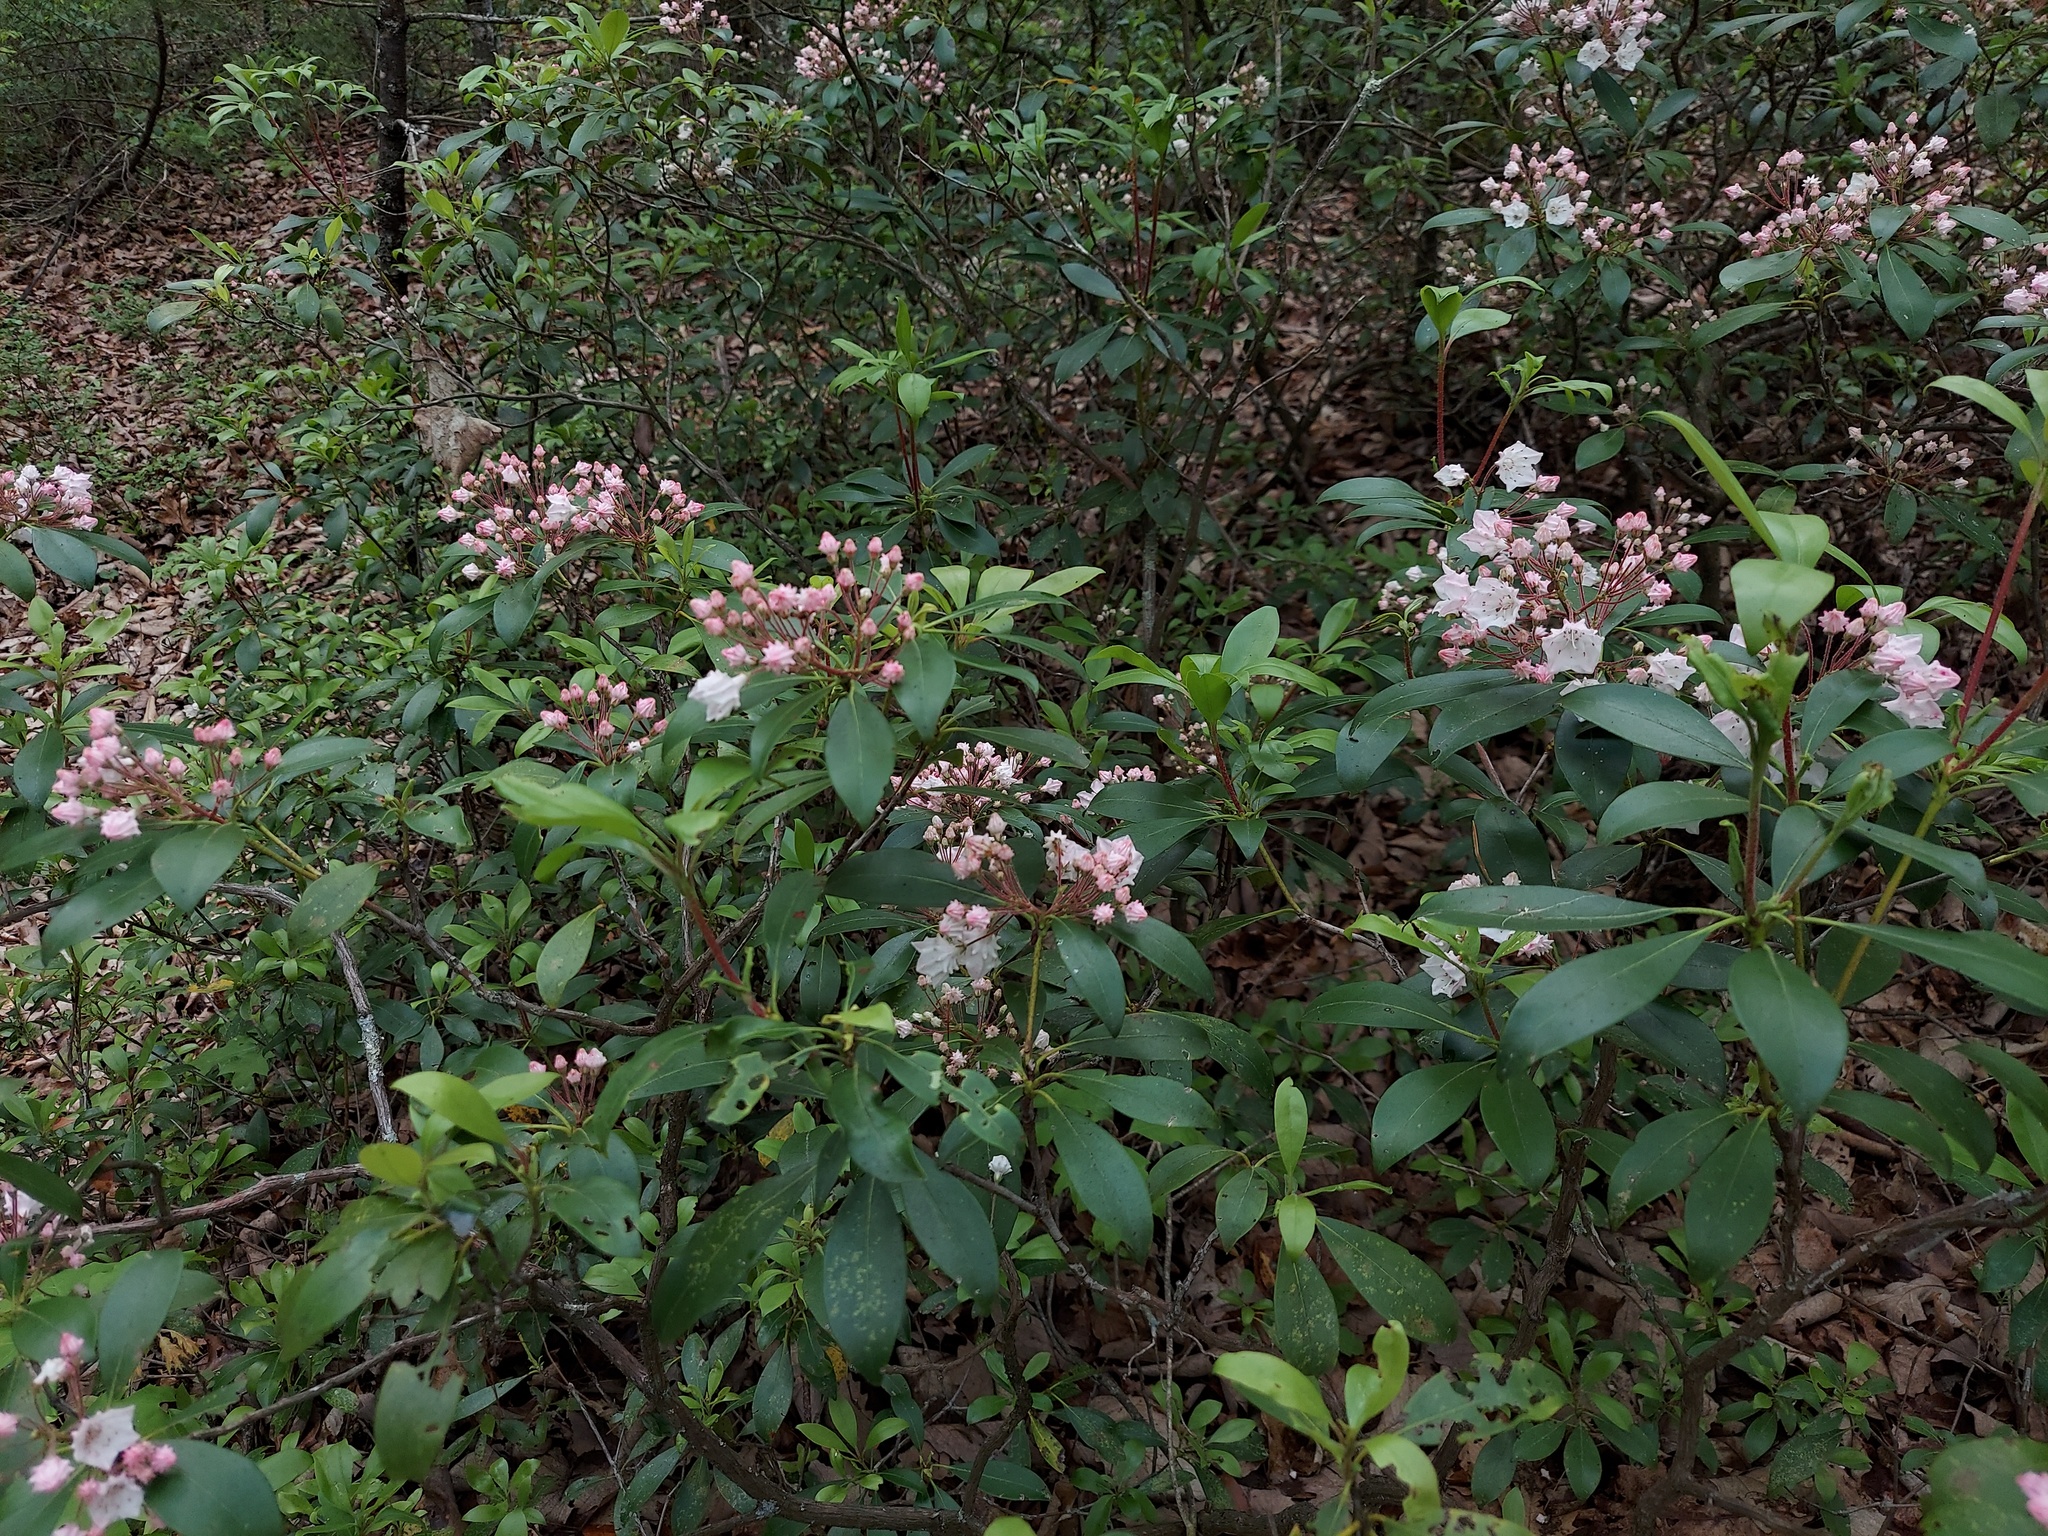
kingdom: Plantae
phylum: Tracheophyta
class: Magnoliopsida
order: Ericales
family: Ericaceae
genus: Kalmia
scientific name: Kalmia latifolia
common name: Mountain-laurel
